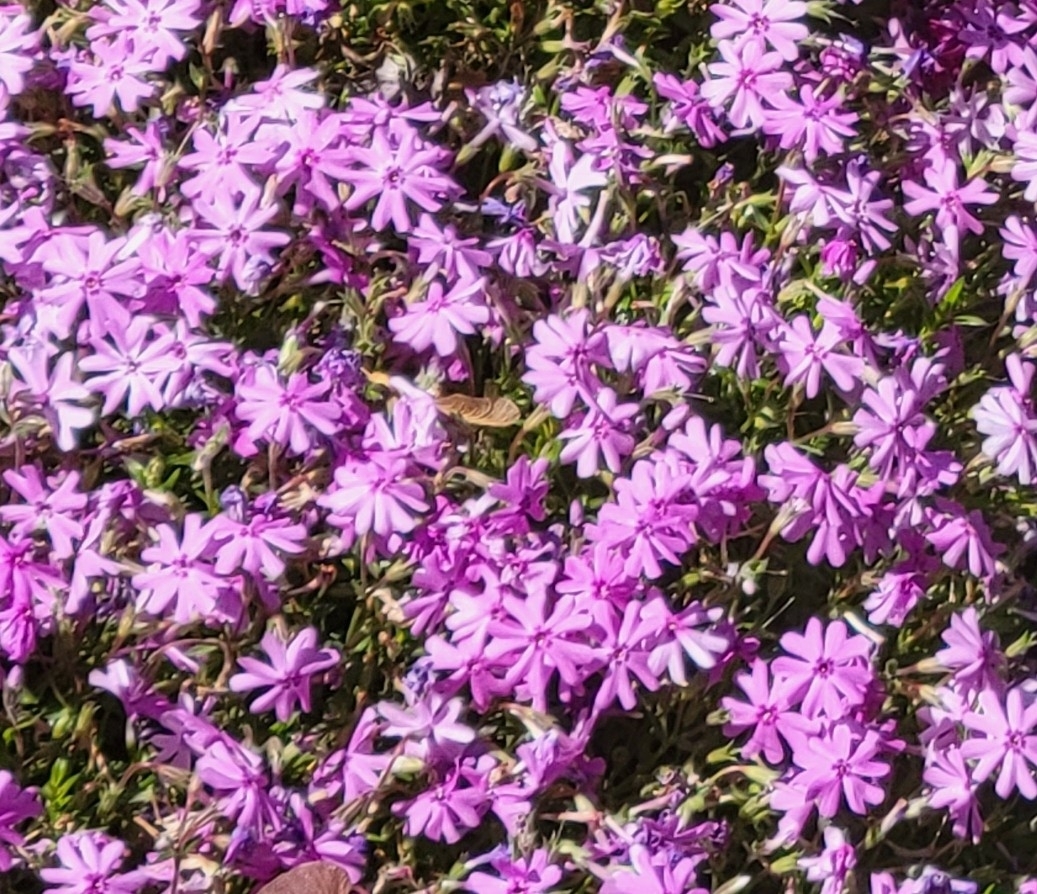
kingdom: Plantae
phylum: Tracheophyta
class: Magnoliopsida
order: Ericales
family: Polemoniaceae
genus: Phlox
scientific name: Phlox subulata
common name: Moss phlox
